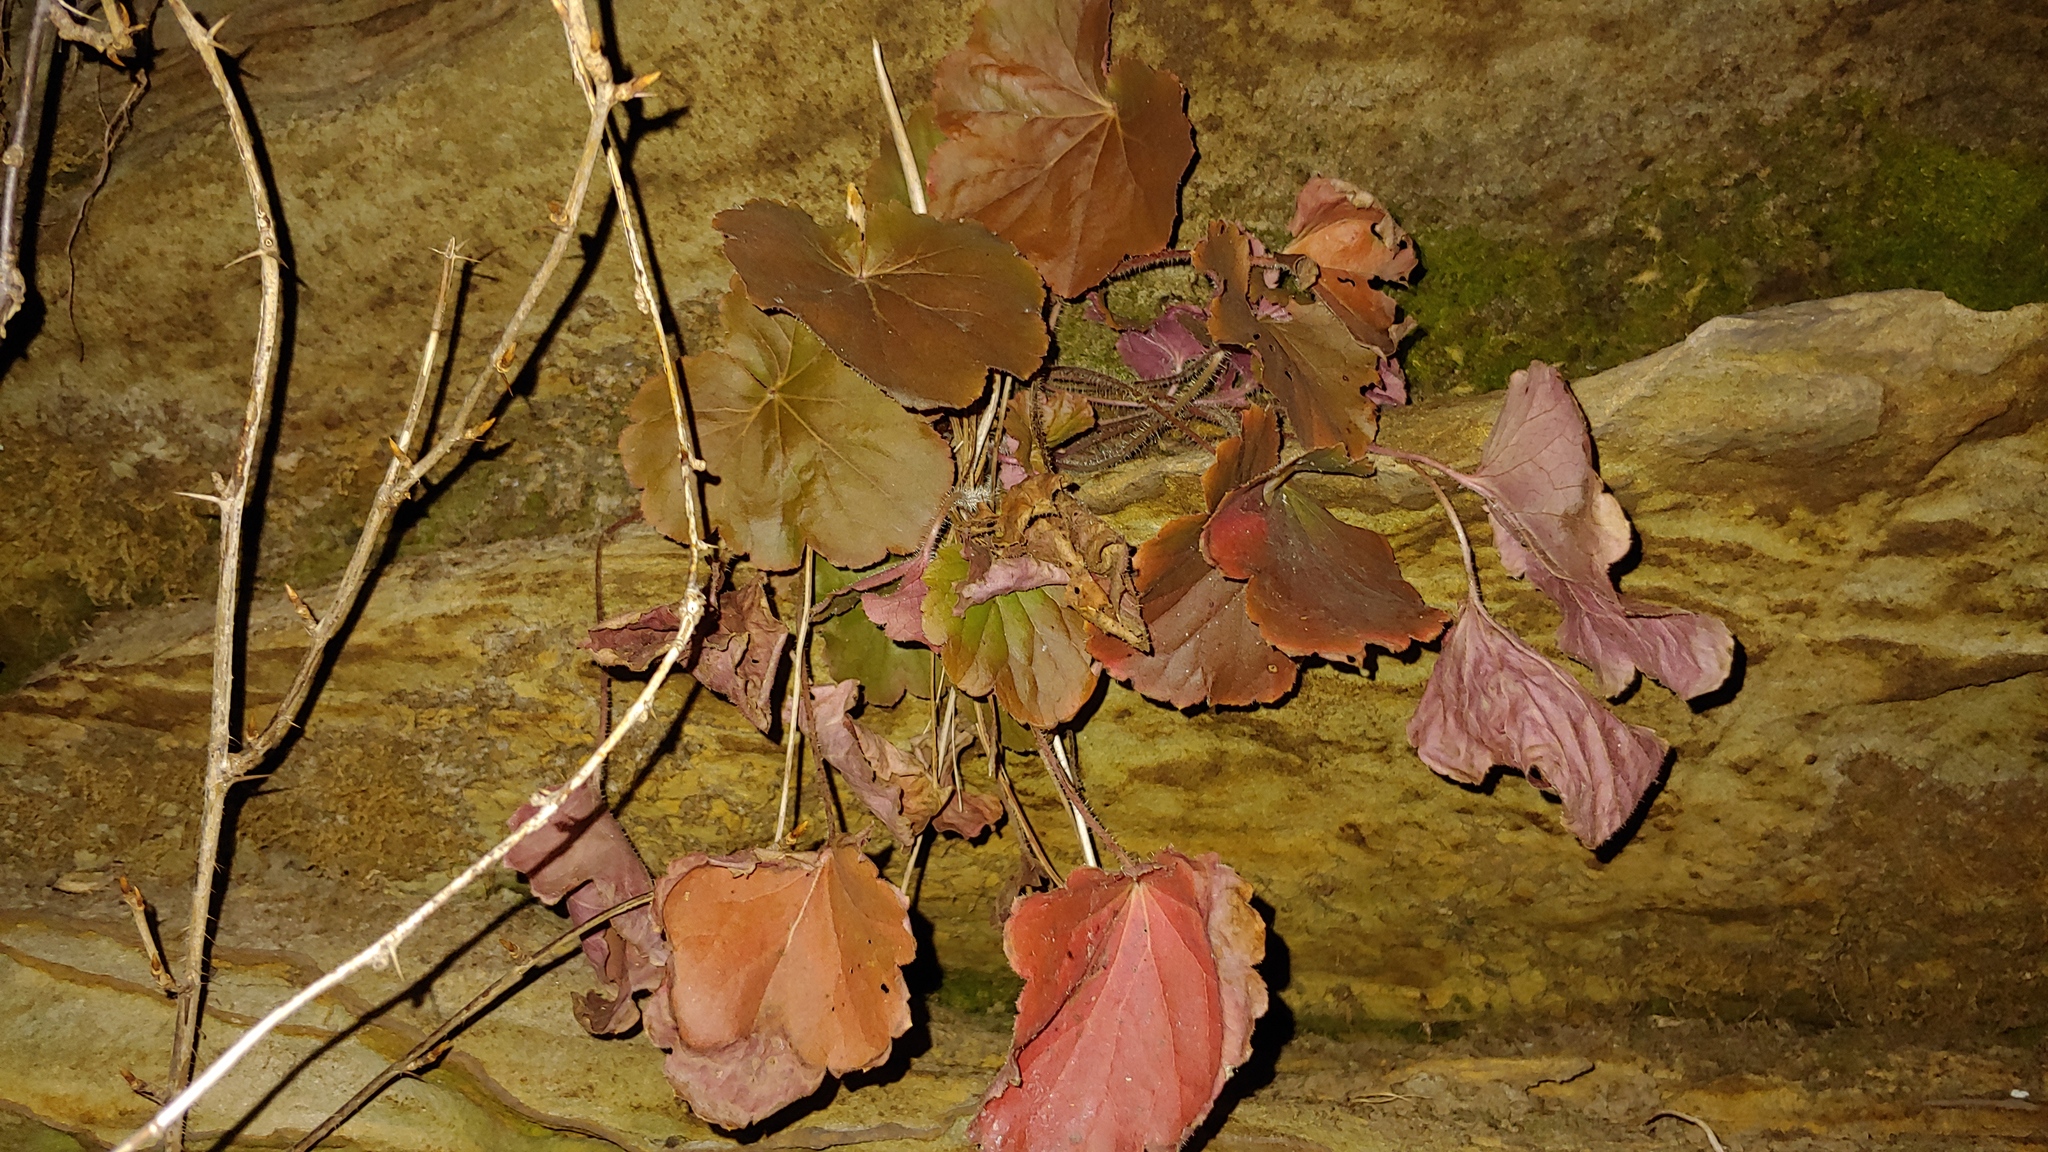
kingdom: Plantae
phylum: Tracheophyta
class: Magnoliopsida
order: Saxifragales
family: Saxifragaceae
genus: Heuchera
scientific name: Heuchera richardsonii
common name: Richardson's alumroot
